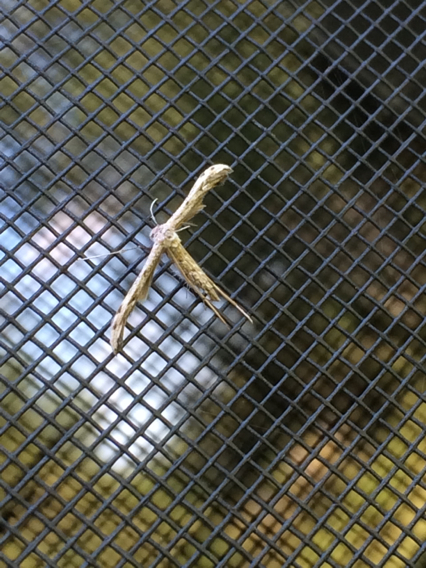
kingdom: Animalia
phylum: Arthropoda
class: Insecta
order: Lepidoptera
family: Pterophoridae
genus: Pselnophorus
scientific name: Pselnophorus belfragei
